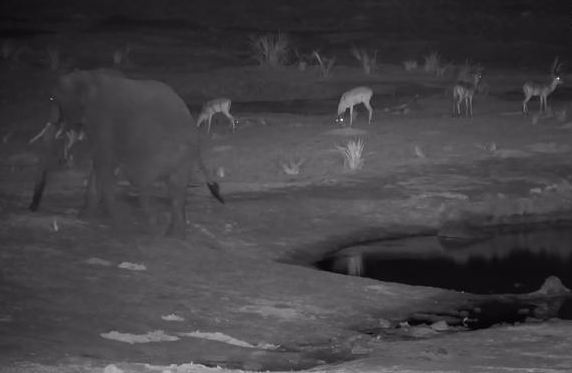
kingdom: Animalia
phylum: Chordata
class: Mammalia
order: Proboscidea
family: Elephantidae
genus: Loxodonta
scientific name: Loxodonta africana
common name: African elephant
